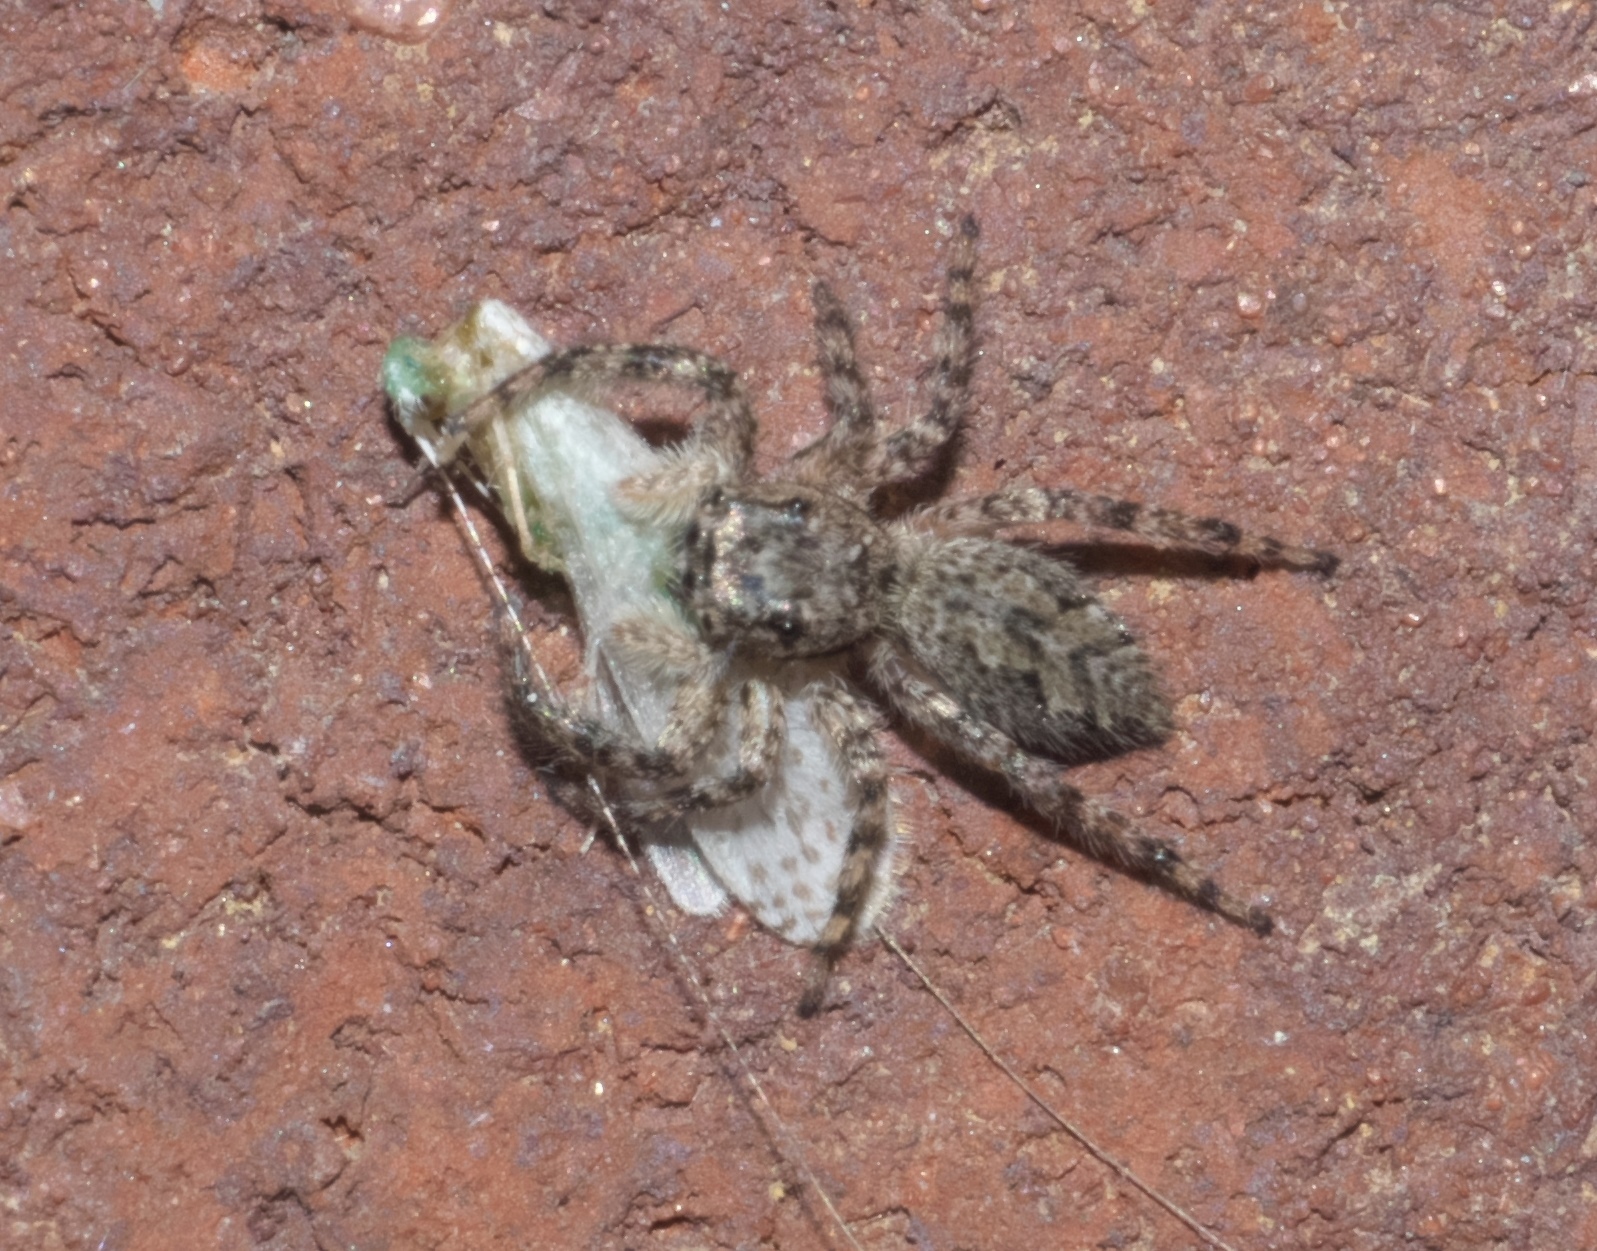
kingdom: Animalia
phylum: Arthropoda
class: Arachnida
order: Araneae
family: Salticidae
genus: Platycryptus
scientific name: Platycryptus undatus
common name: Tan jumping spider
